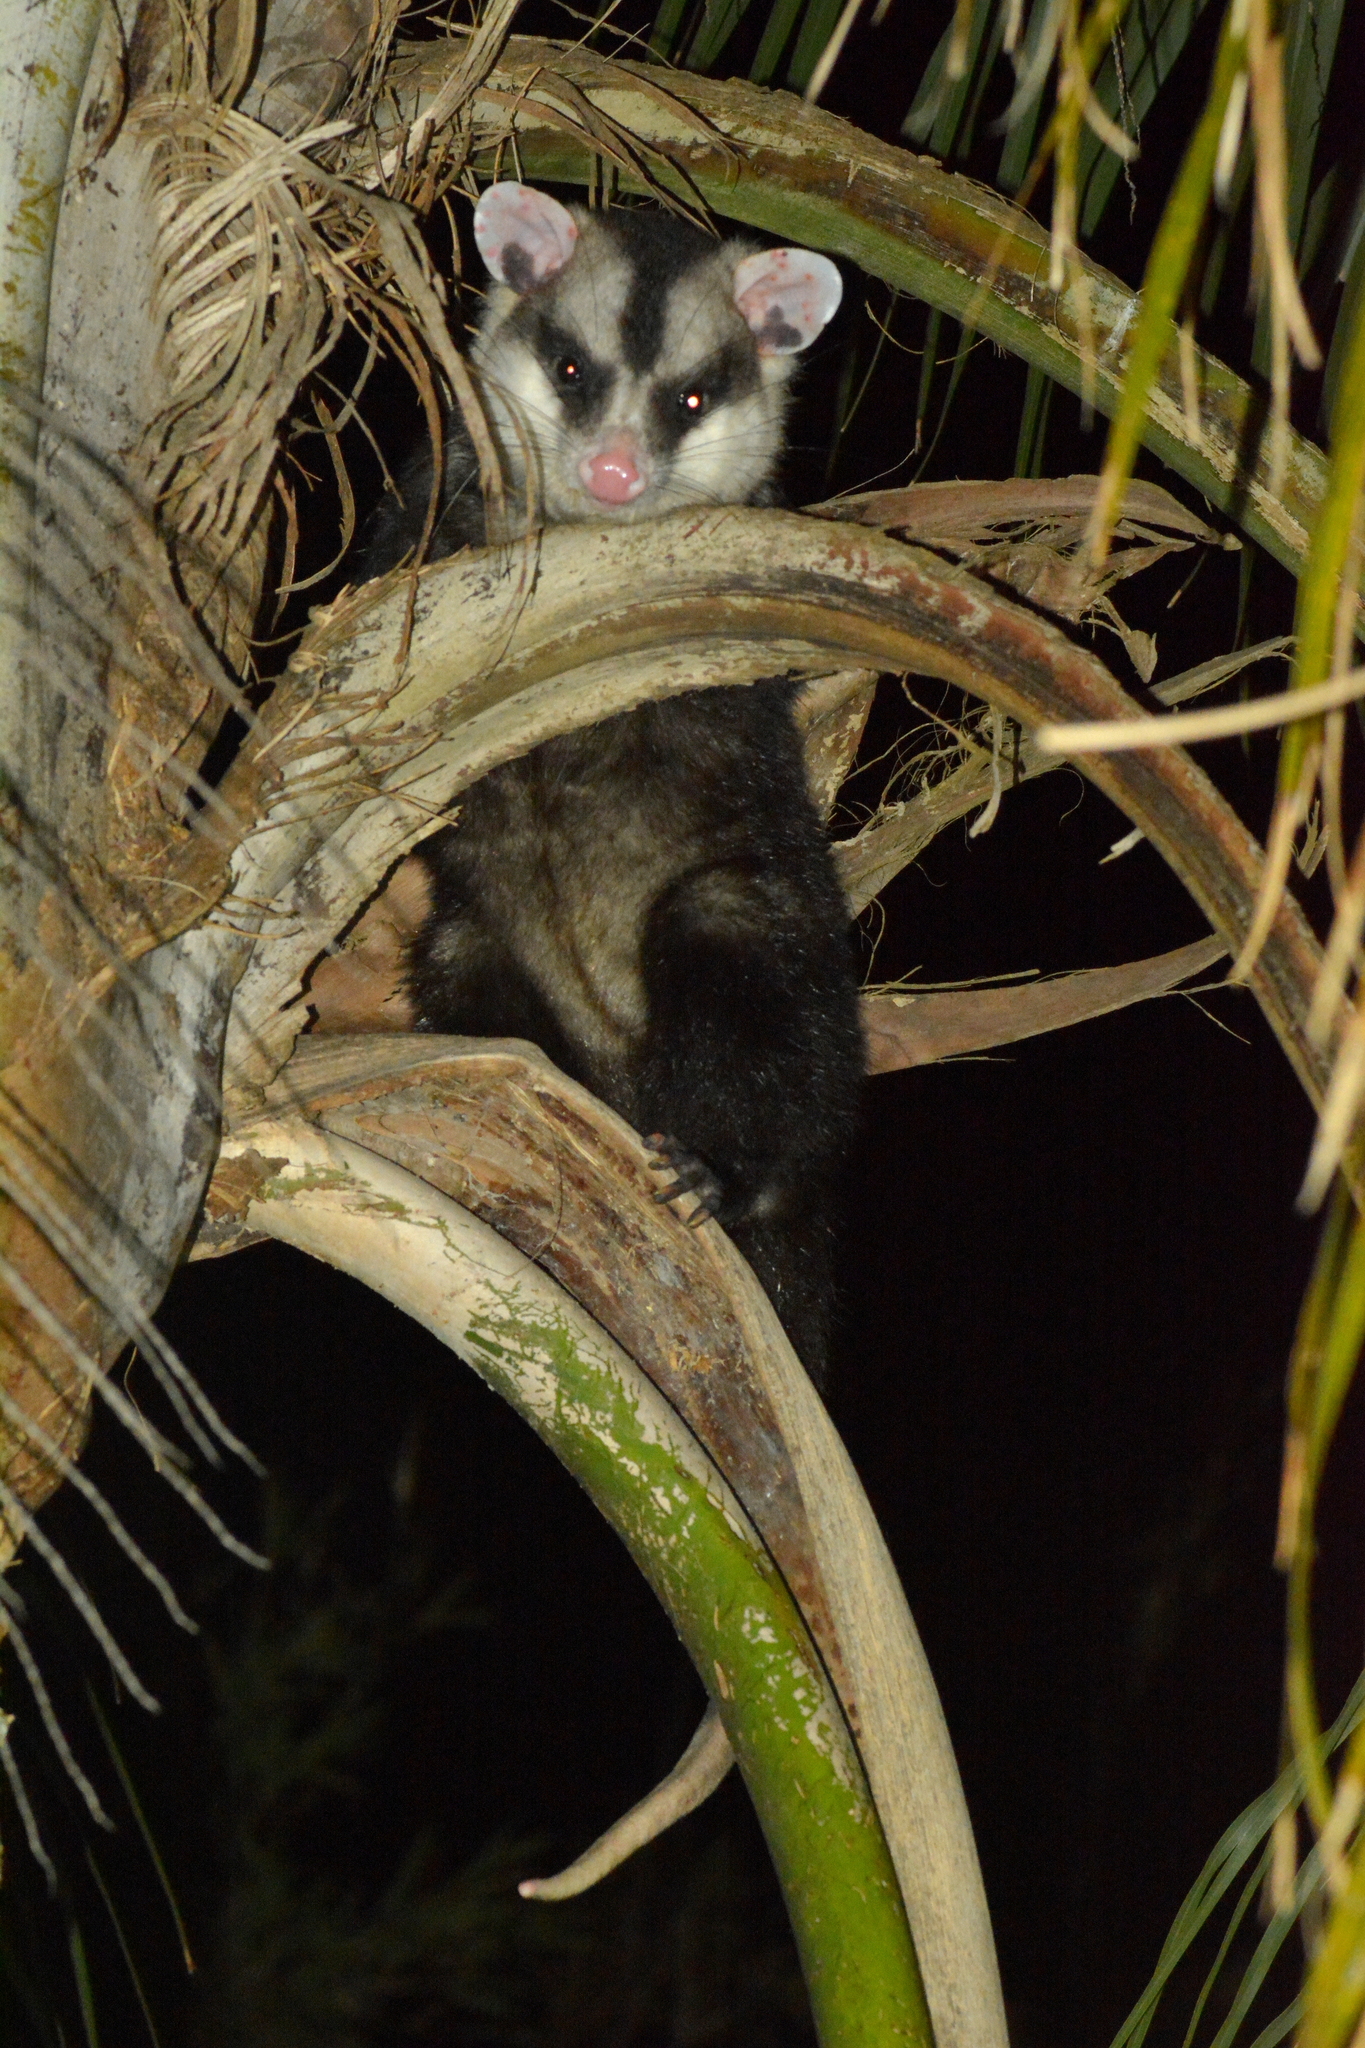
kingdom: Animalia
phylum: Chordata
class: Mammalia
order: Didelphimorphia
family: Didelphidae
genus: Didelphis
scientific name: Didelphis albiventris
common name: White-eared opossum
